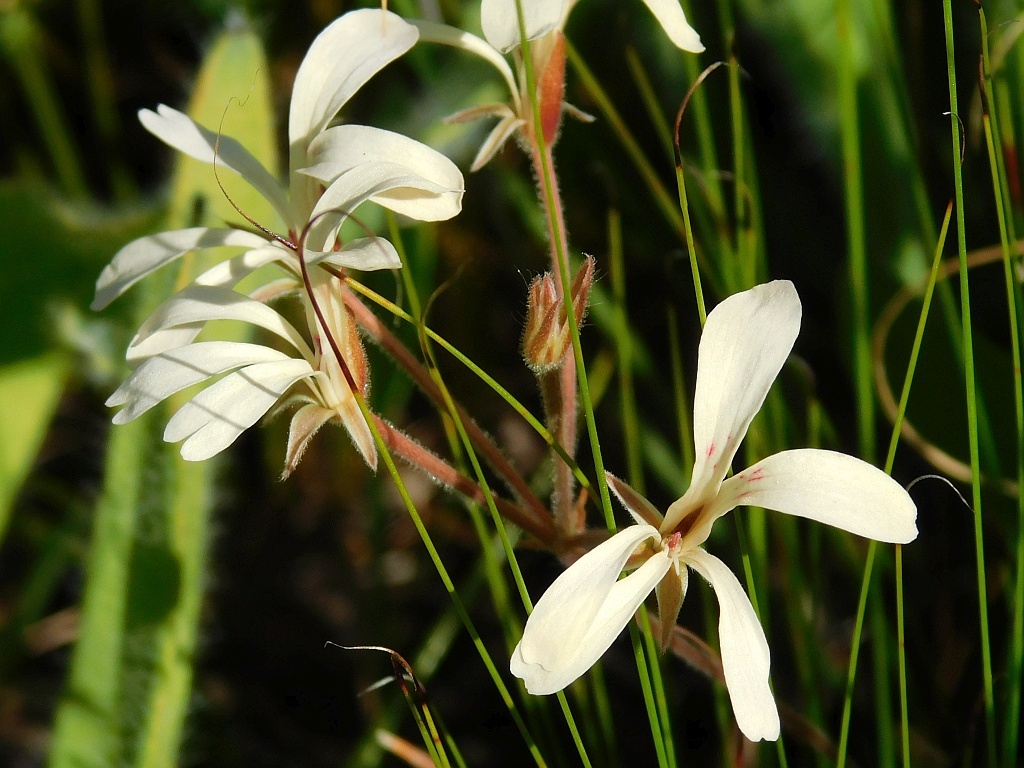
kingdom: Plantae
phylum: Tracheophyta
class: Magnoliopsida
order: Geraniales
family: Geraniaceae
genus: Pelargonium
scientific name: Pelargonium pinnatum
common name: Pinnated pelargonium
